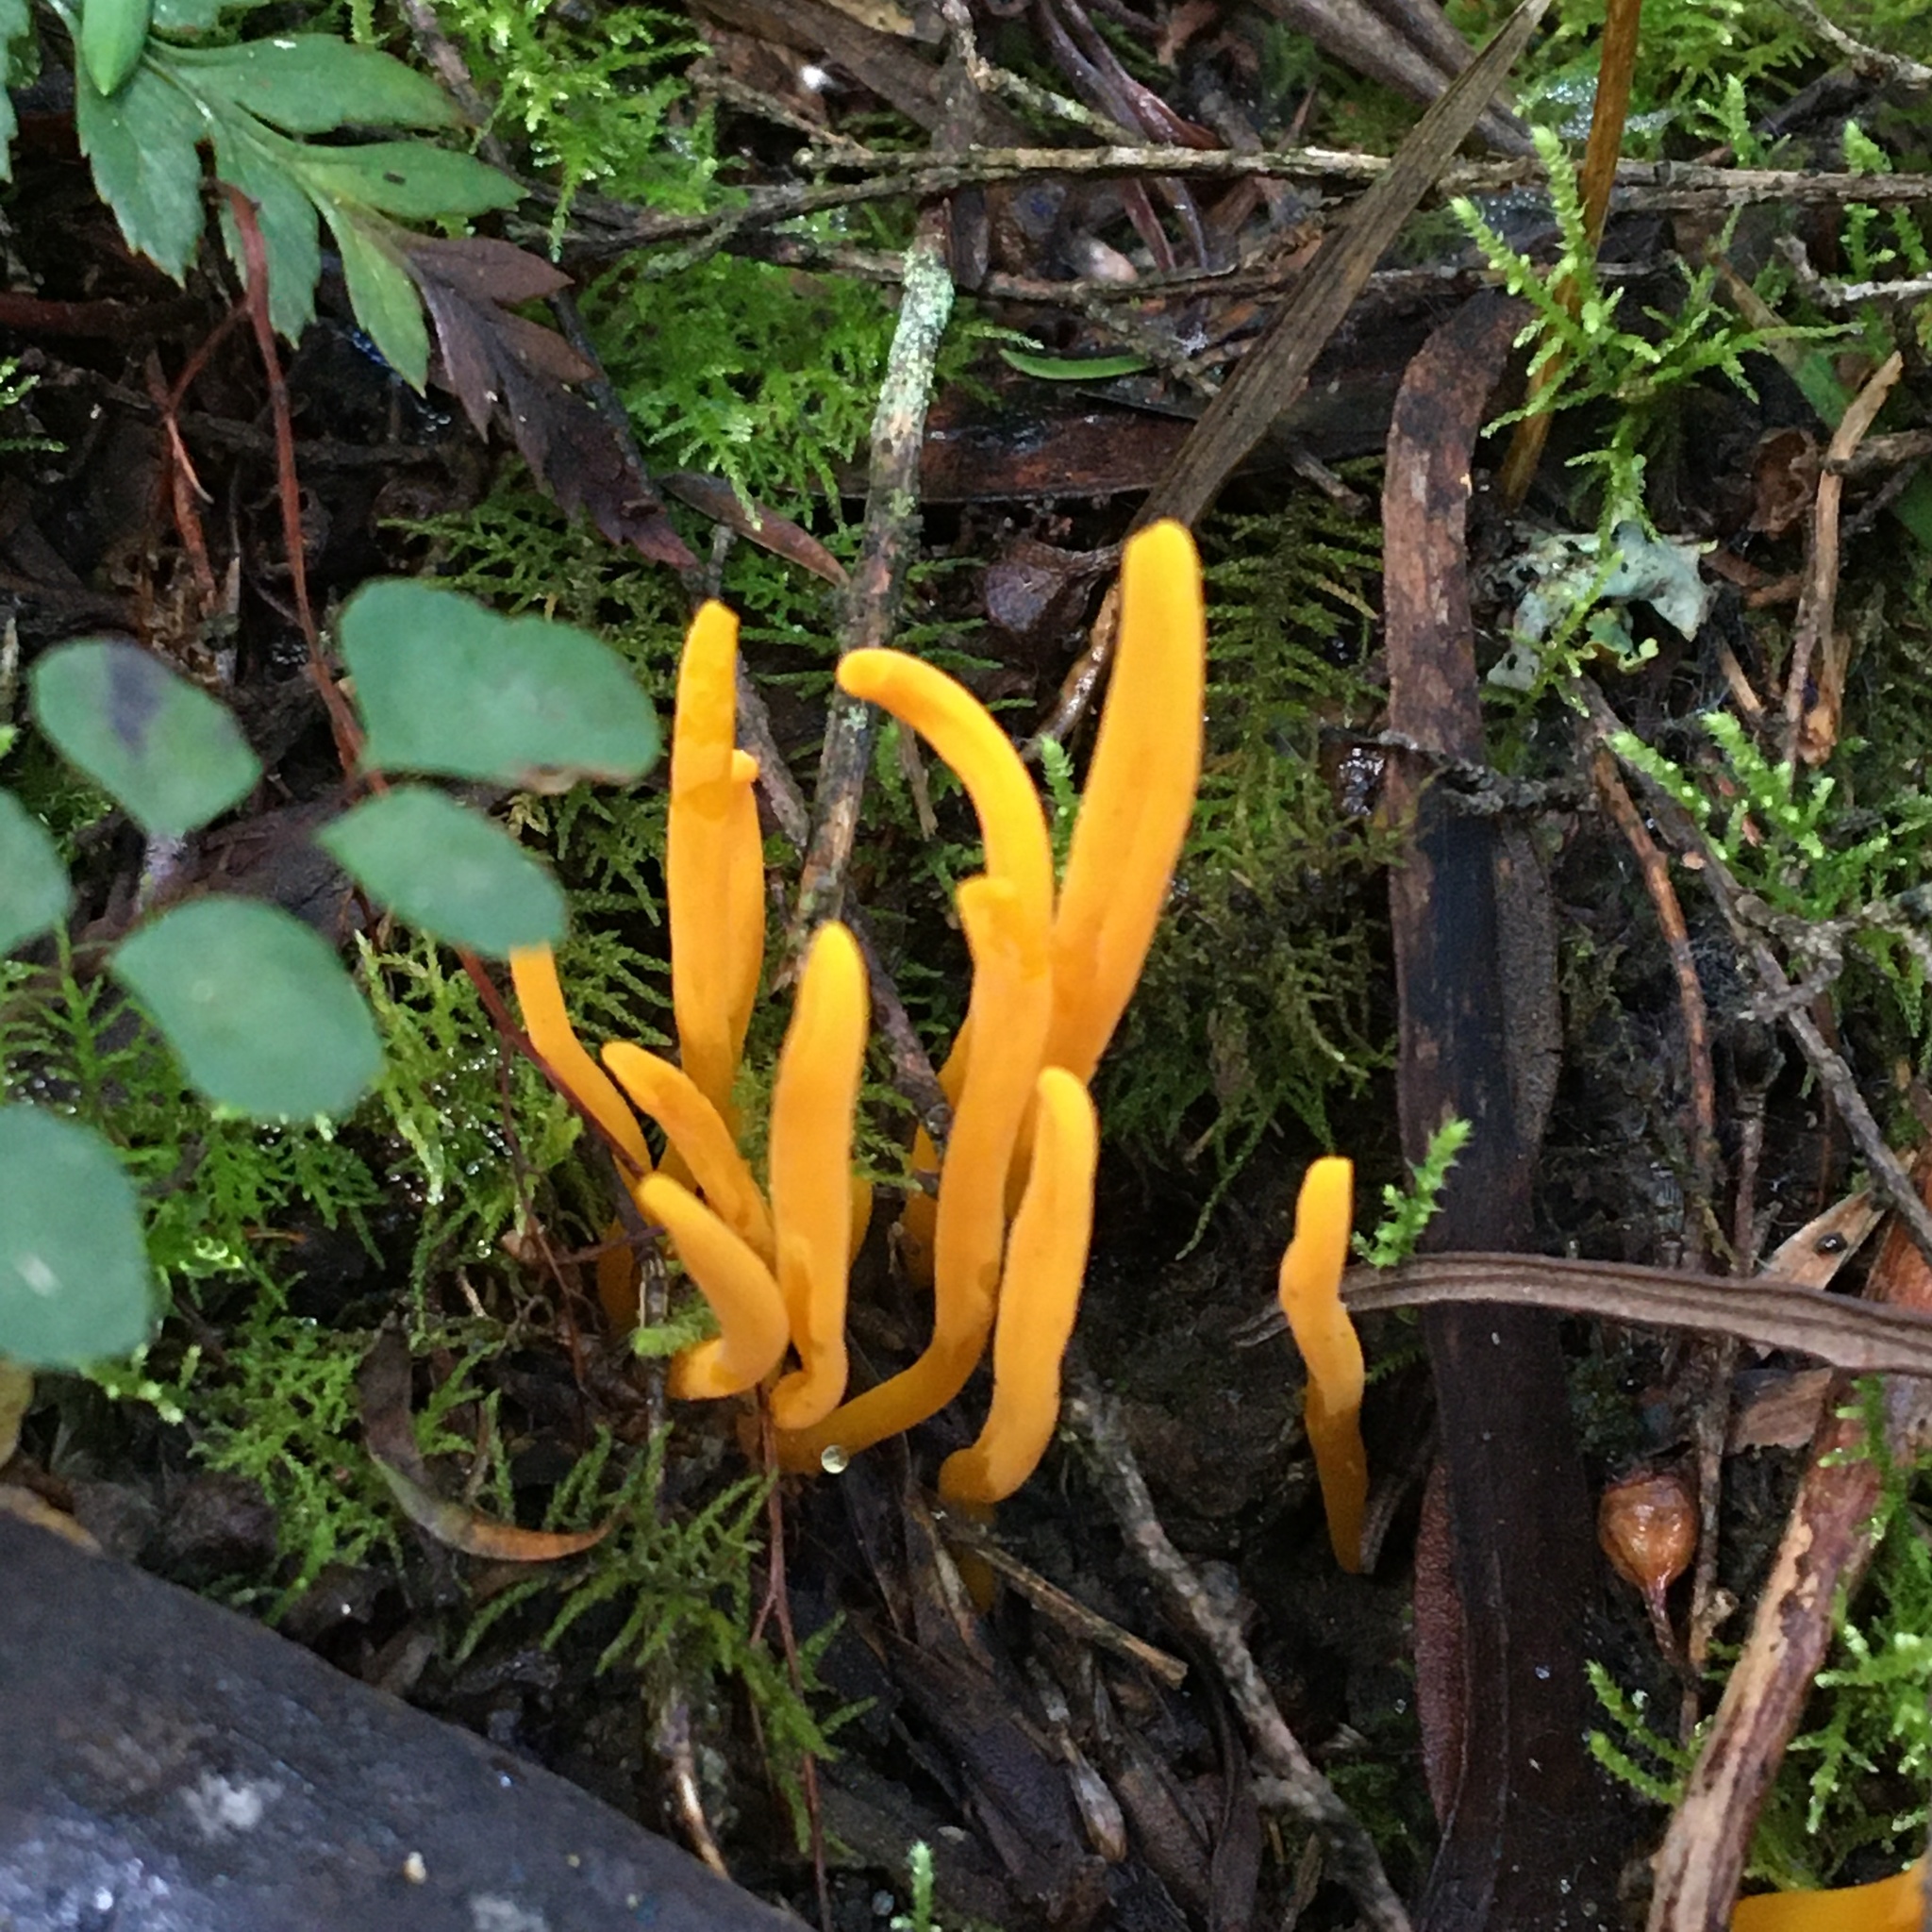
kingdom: Fungi
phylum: Basidiomycota
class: Agaricomycetes
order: Agaricales
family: Clavariaceae
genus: Clavulinopsis
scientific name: Clavulinopsis amoena
